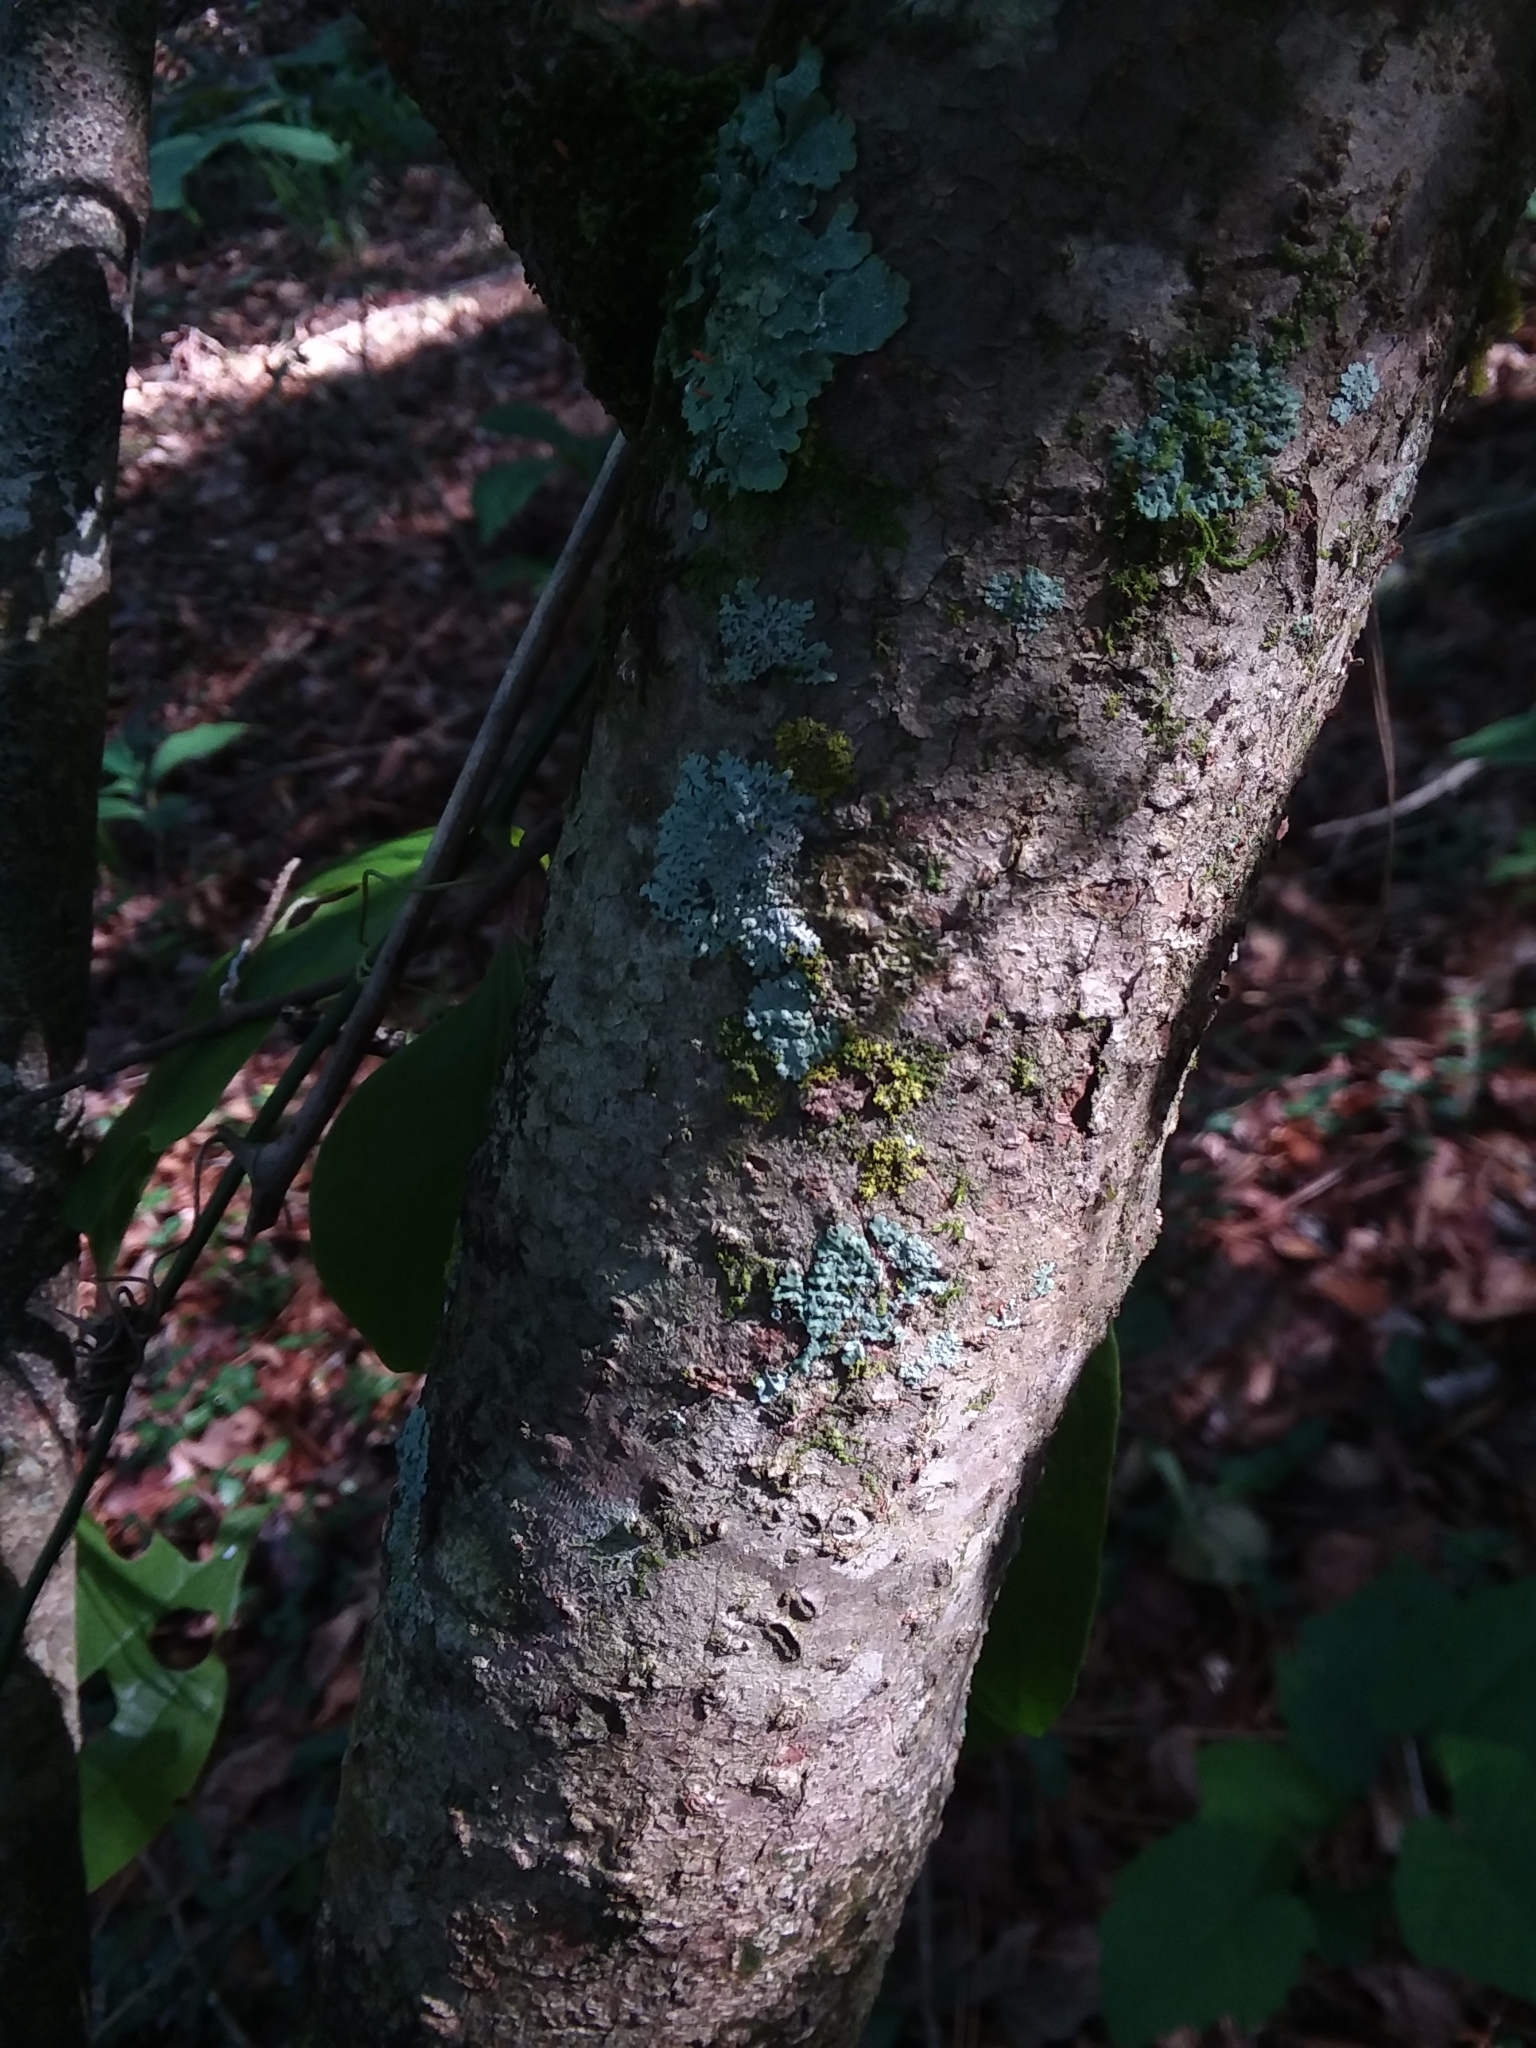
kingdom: Plantae
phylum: Tracheophyta
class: Magnoliopsida
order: Saxifragales
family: Hamamelidaceae
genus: Hamamelis
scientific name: Hamamelis virginiana
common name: Witch-hazel
